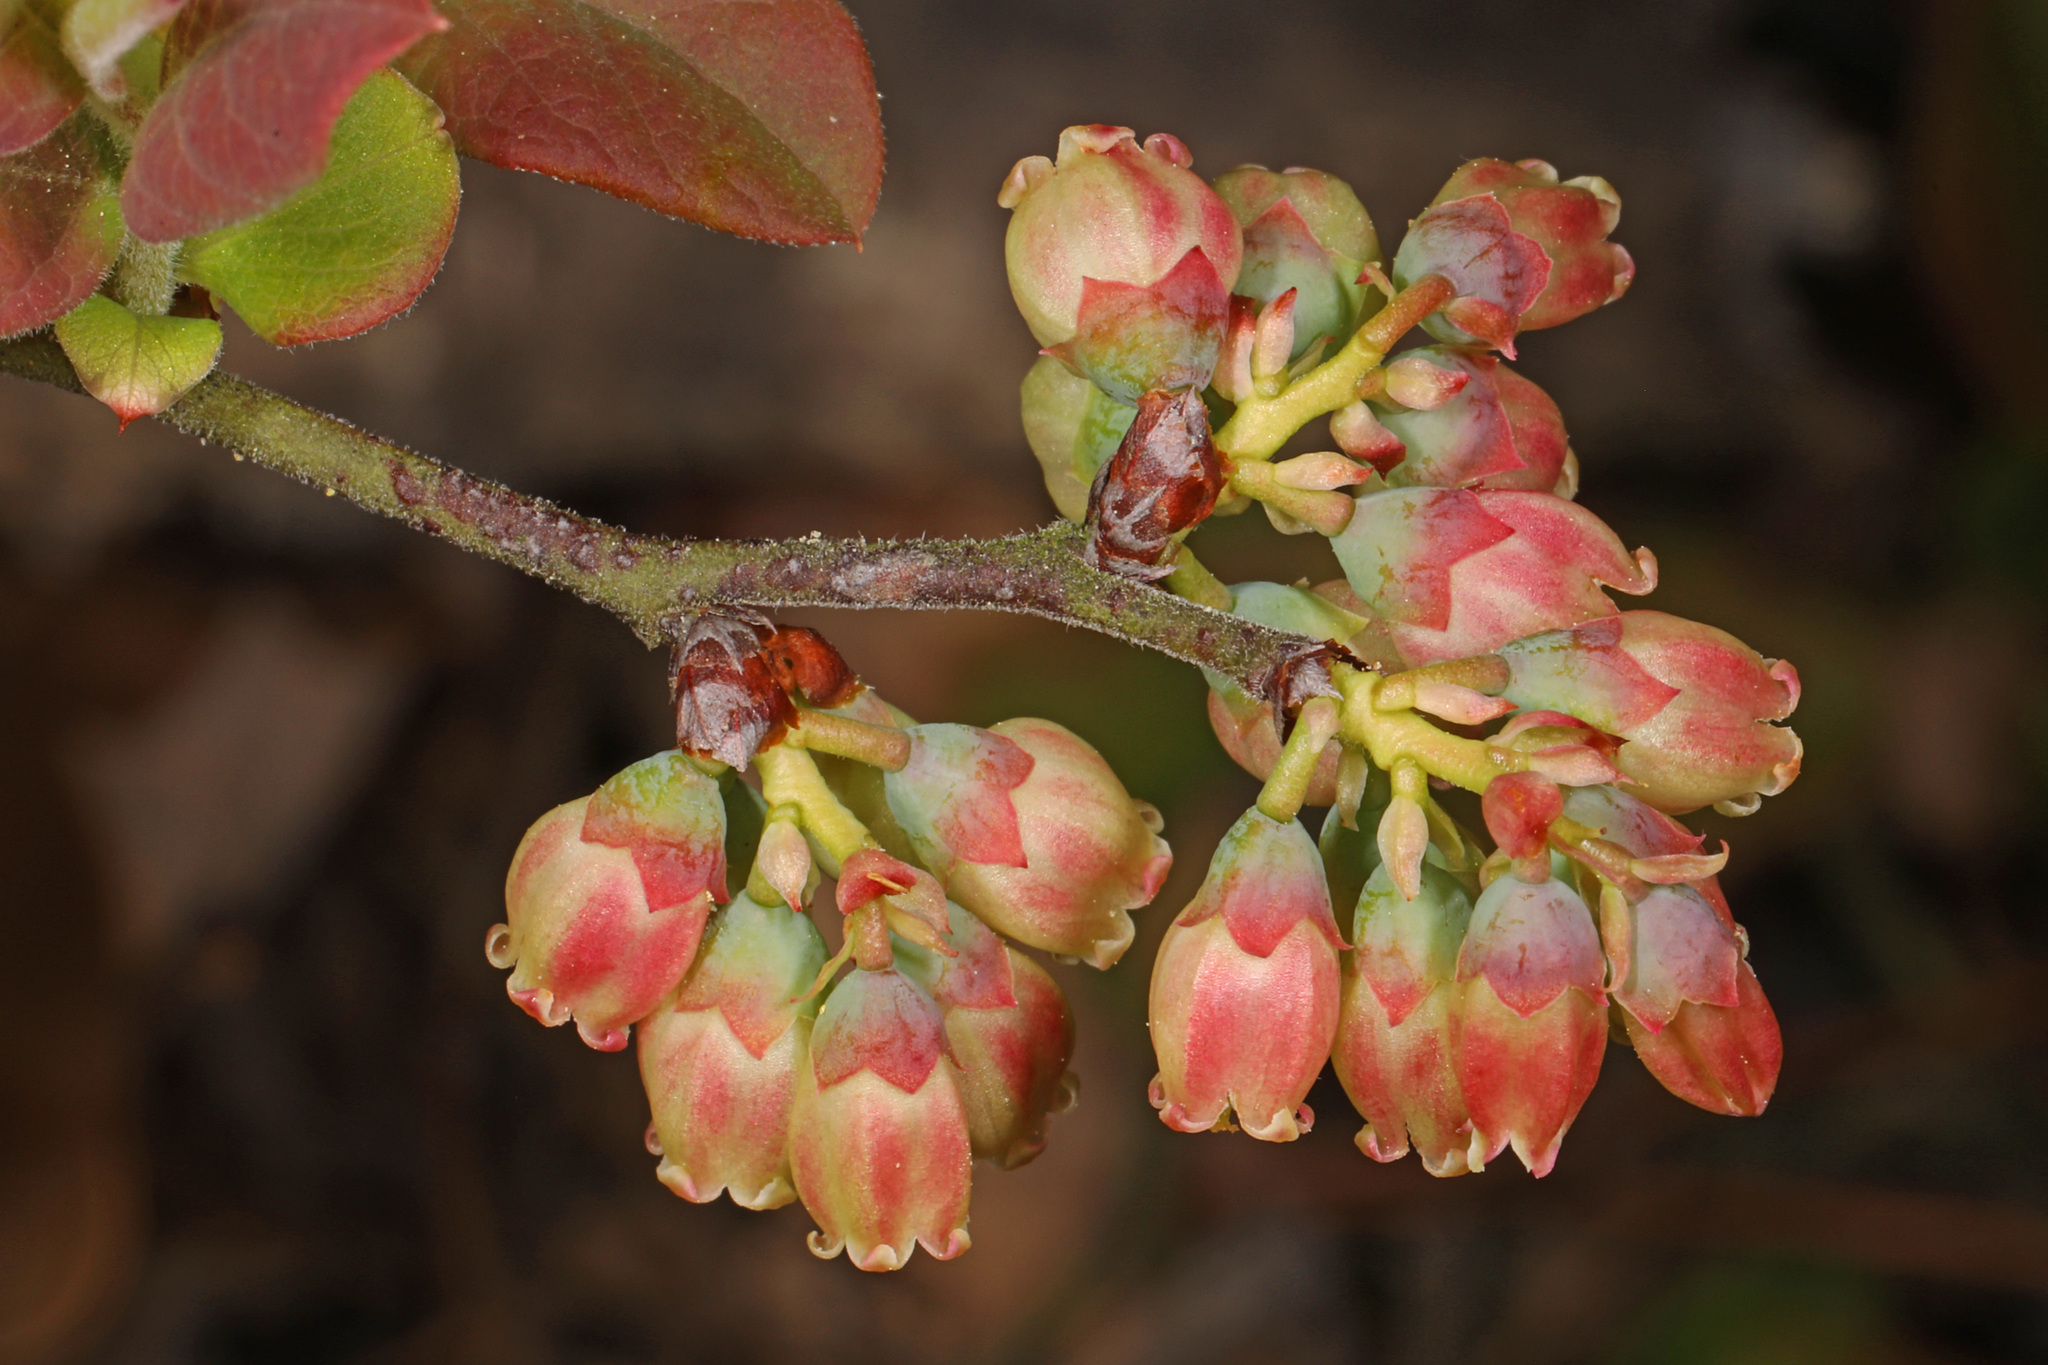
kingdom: Plantae
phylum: Tracheophyta
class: Magnoliopsida
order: Ericales
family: Ericaceae
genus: Gaylussacia
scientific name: Gaylussacia baccata
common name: Black huckleberry
